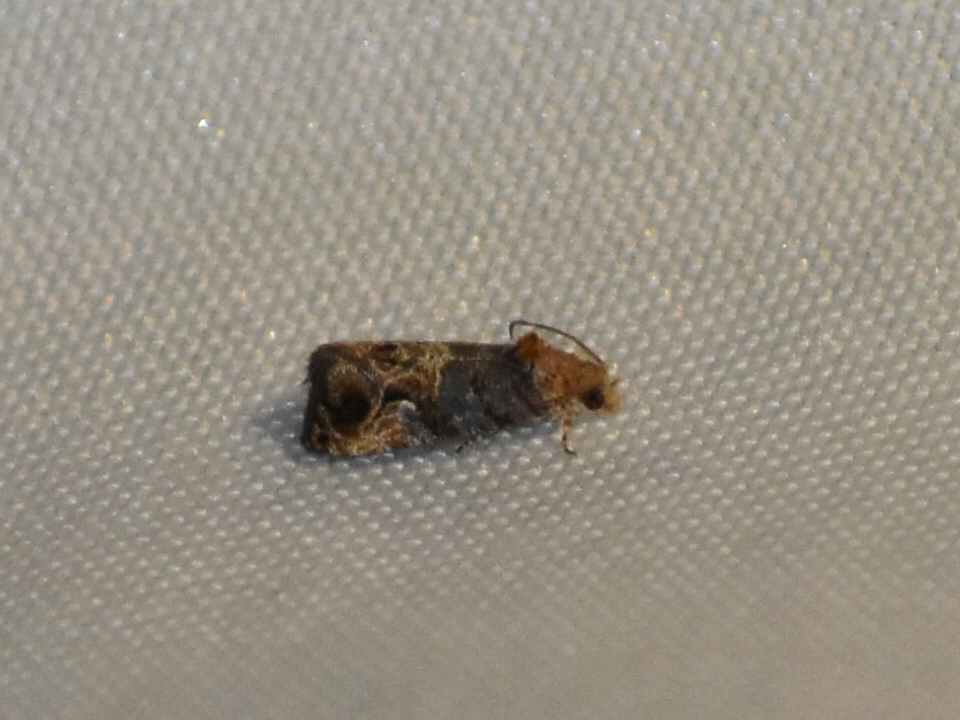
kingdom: Animalia
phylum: Arthropoda
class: Insecta
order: Lepidoptera
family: Tortricidae
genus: Paralobesia
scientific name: Paralobesia viteana
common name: Grape berry moth
